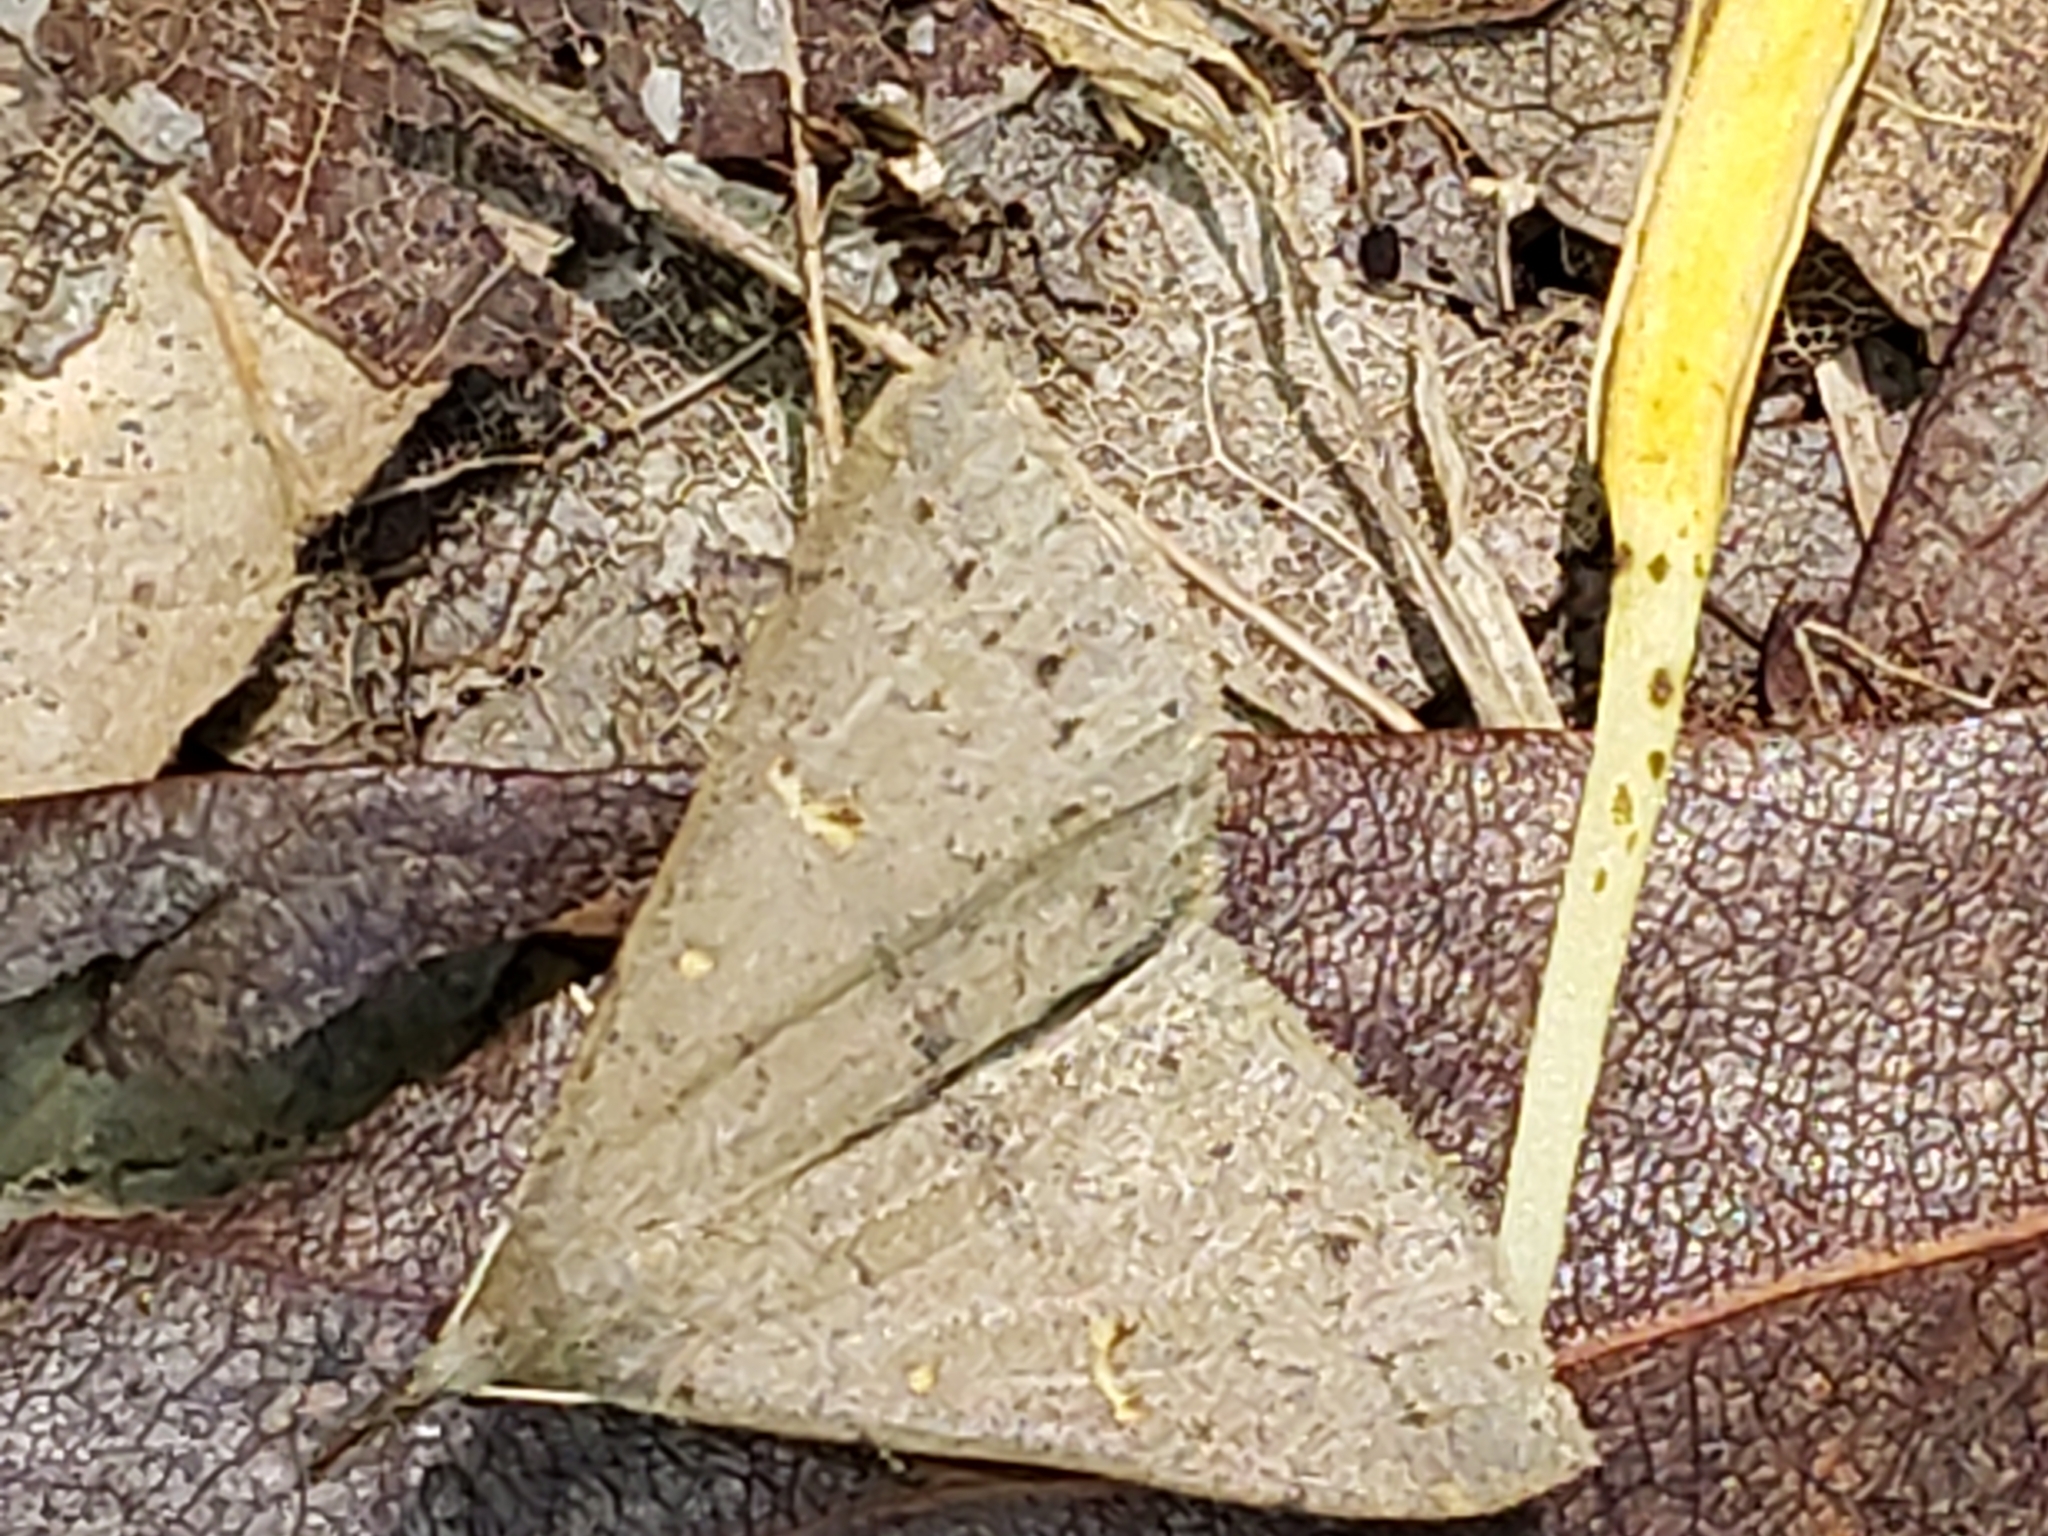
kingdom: Animalia
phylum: Arthropoda
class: Insecta
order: Lepidoptera
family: Erebidae
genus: Renia
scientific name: Renia adspergillus
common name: Speckled renia moth
